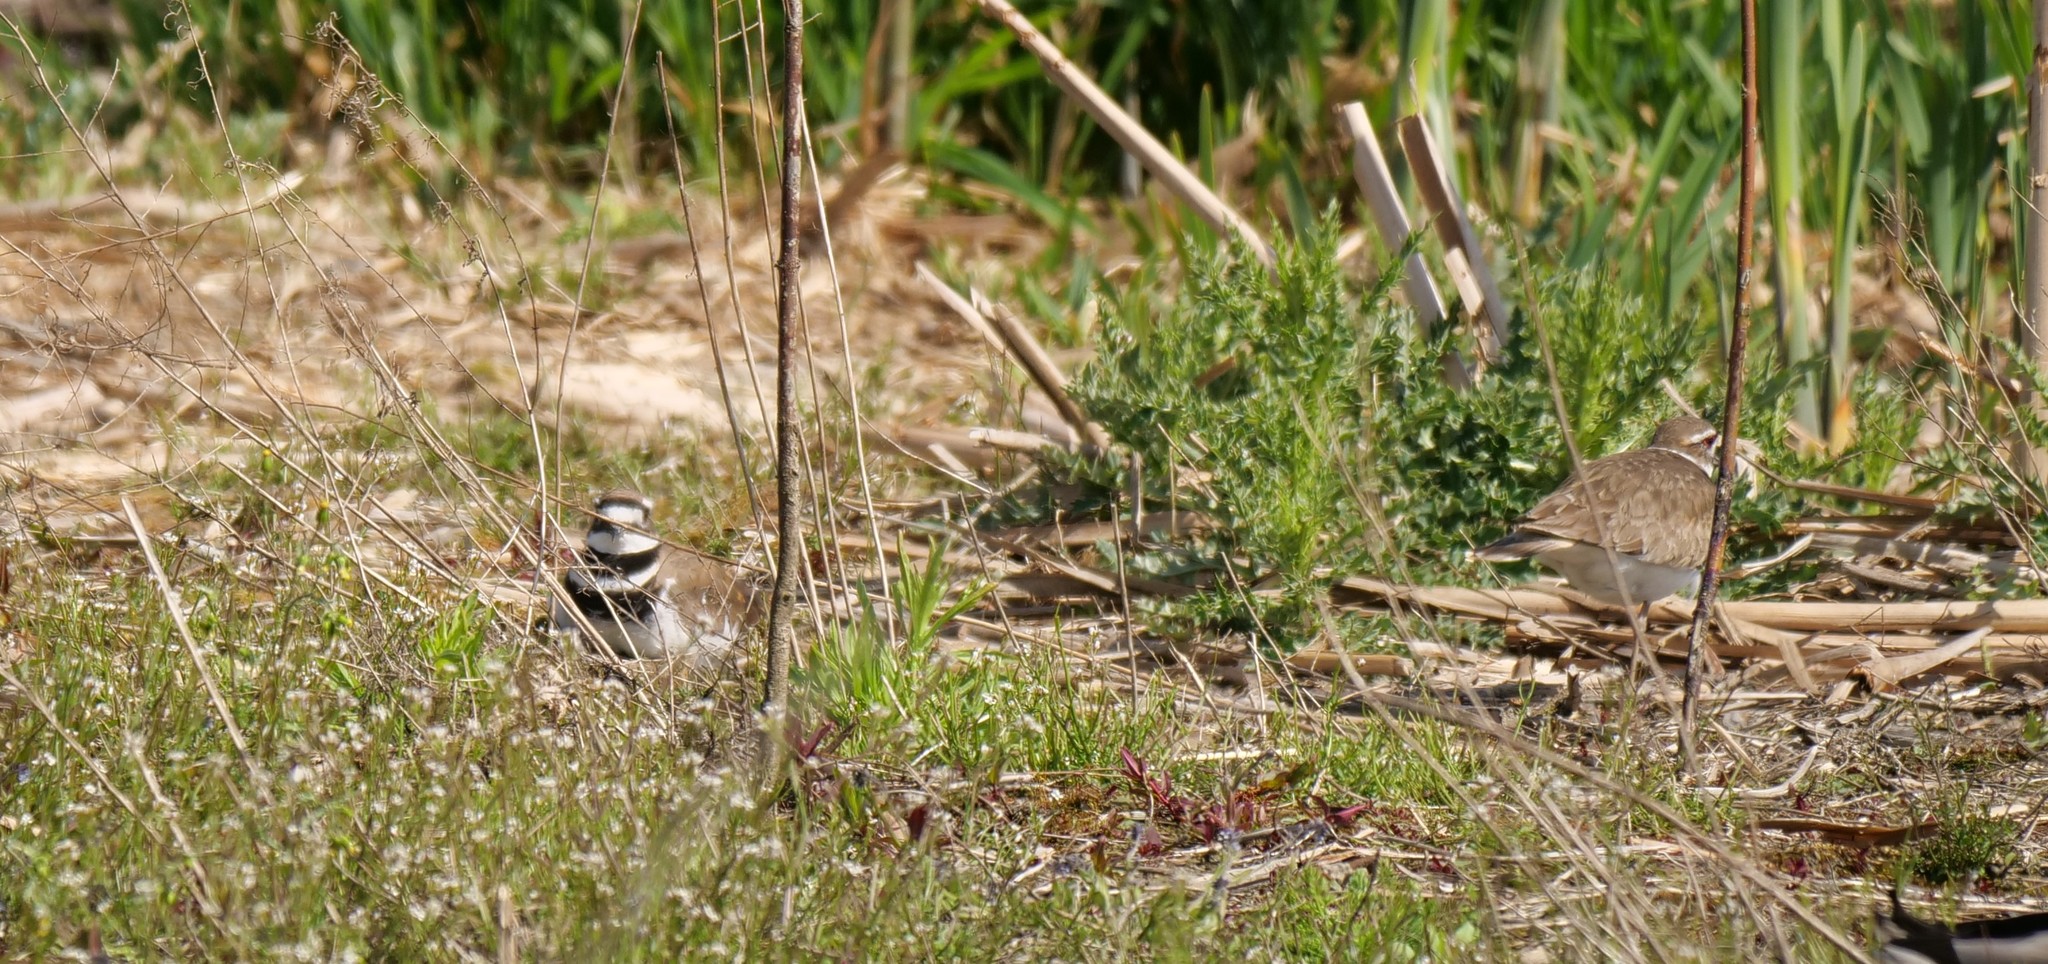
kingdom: Animalia
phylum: Chordata
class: Aves
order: Charadriiformes
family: Charadriidae
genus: Charadrius
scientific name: Charadrius vociferus
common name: Killdeer
